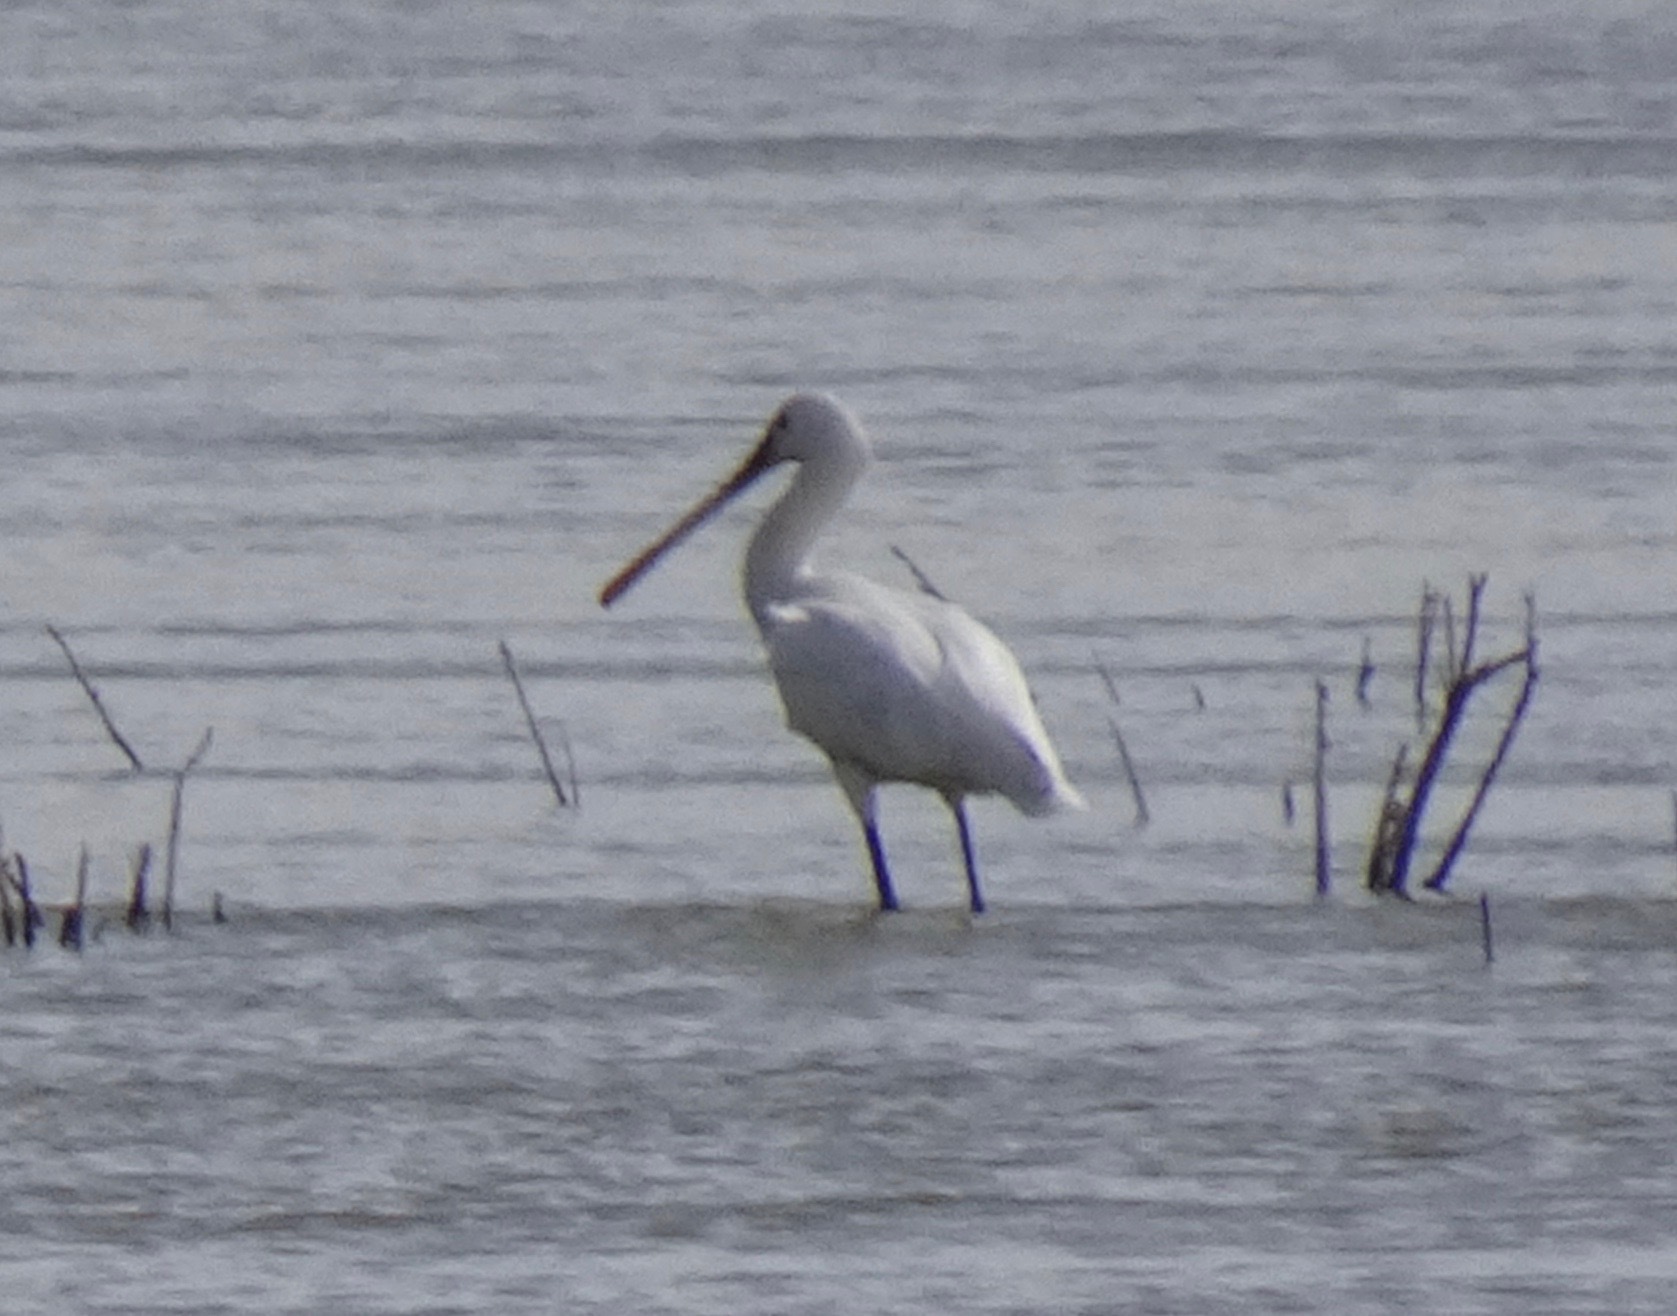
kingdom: Animalia
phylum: Chordata
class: Aves
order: Pelecaniformes
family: Threskiornithidae
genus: Platalea
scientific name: Platalea leucorodia
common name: Eurasian spoonbill
